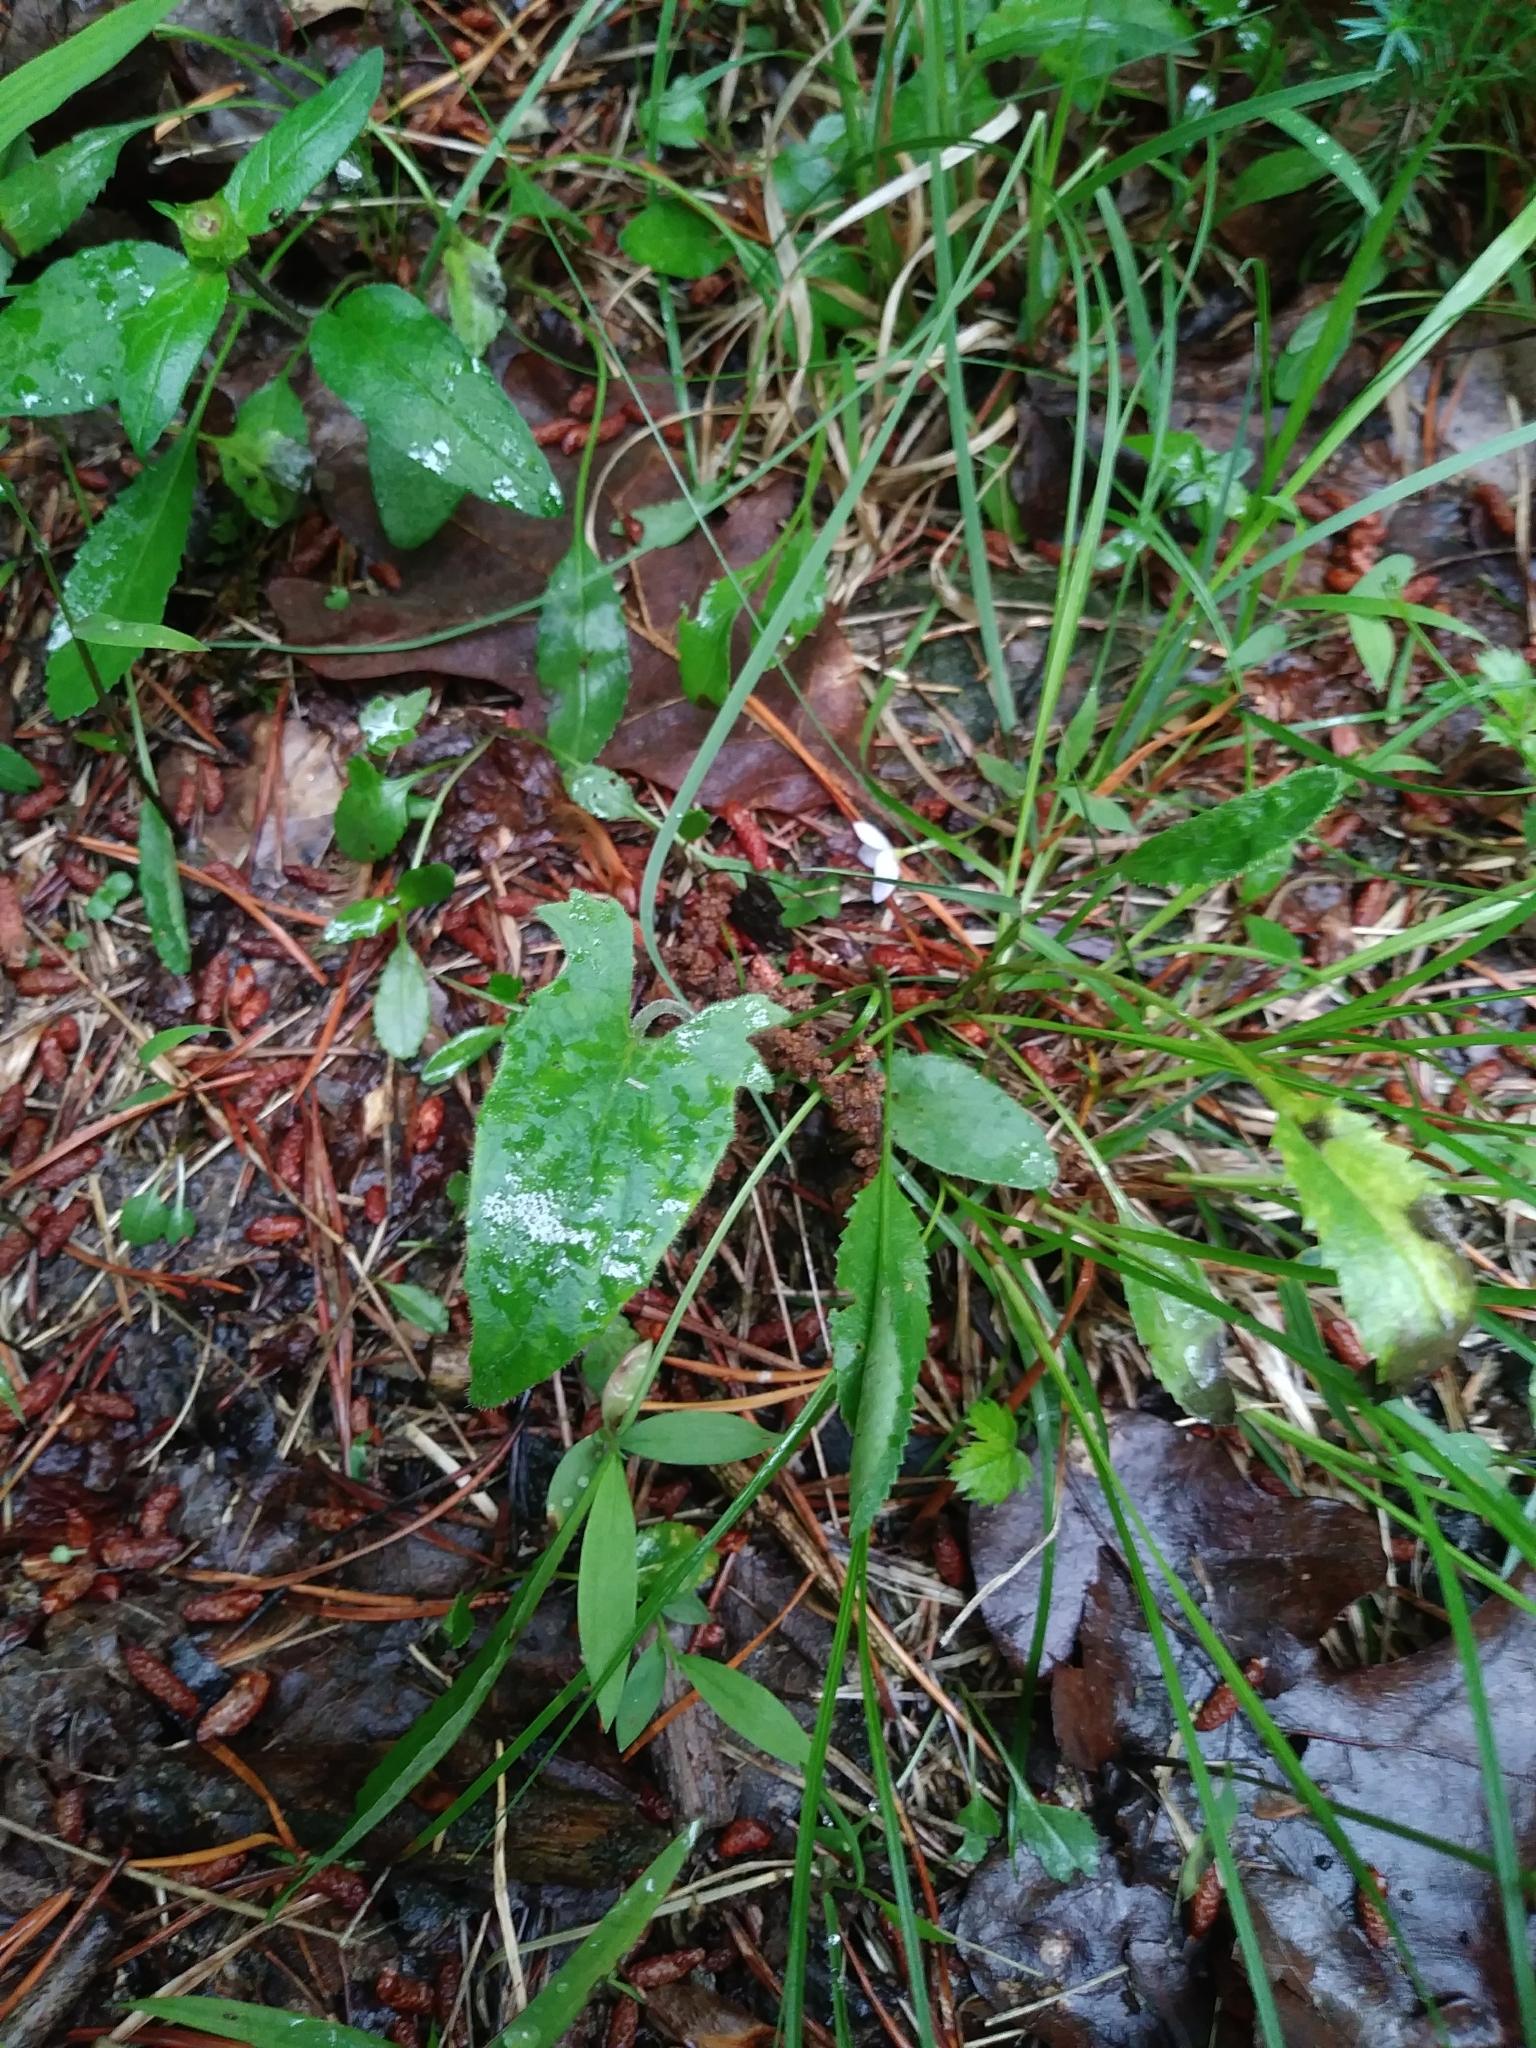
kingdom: Plantae
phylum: Tracheophyta
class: Magnoliopsida
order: Malpighiales
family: Violaceae
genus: Viola
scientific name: Viola sagittata
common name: Arrowhead violet
